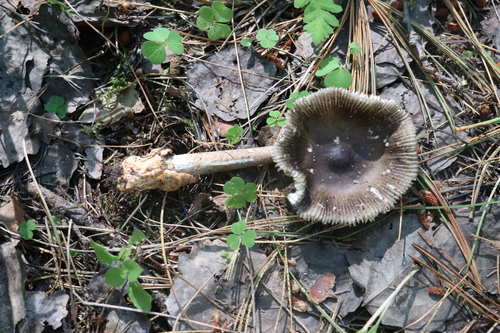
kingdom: Fungi
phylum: Basidiomycota
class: Agaricomycetes
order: Agaricales
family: Amanitaceae
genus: Amanita
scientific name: Amanita battarrae
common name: Banded amanita
